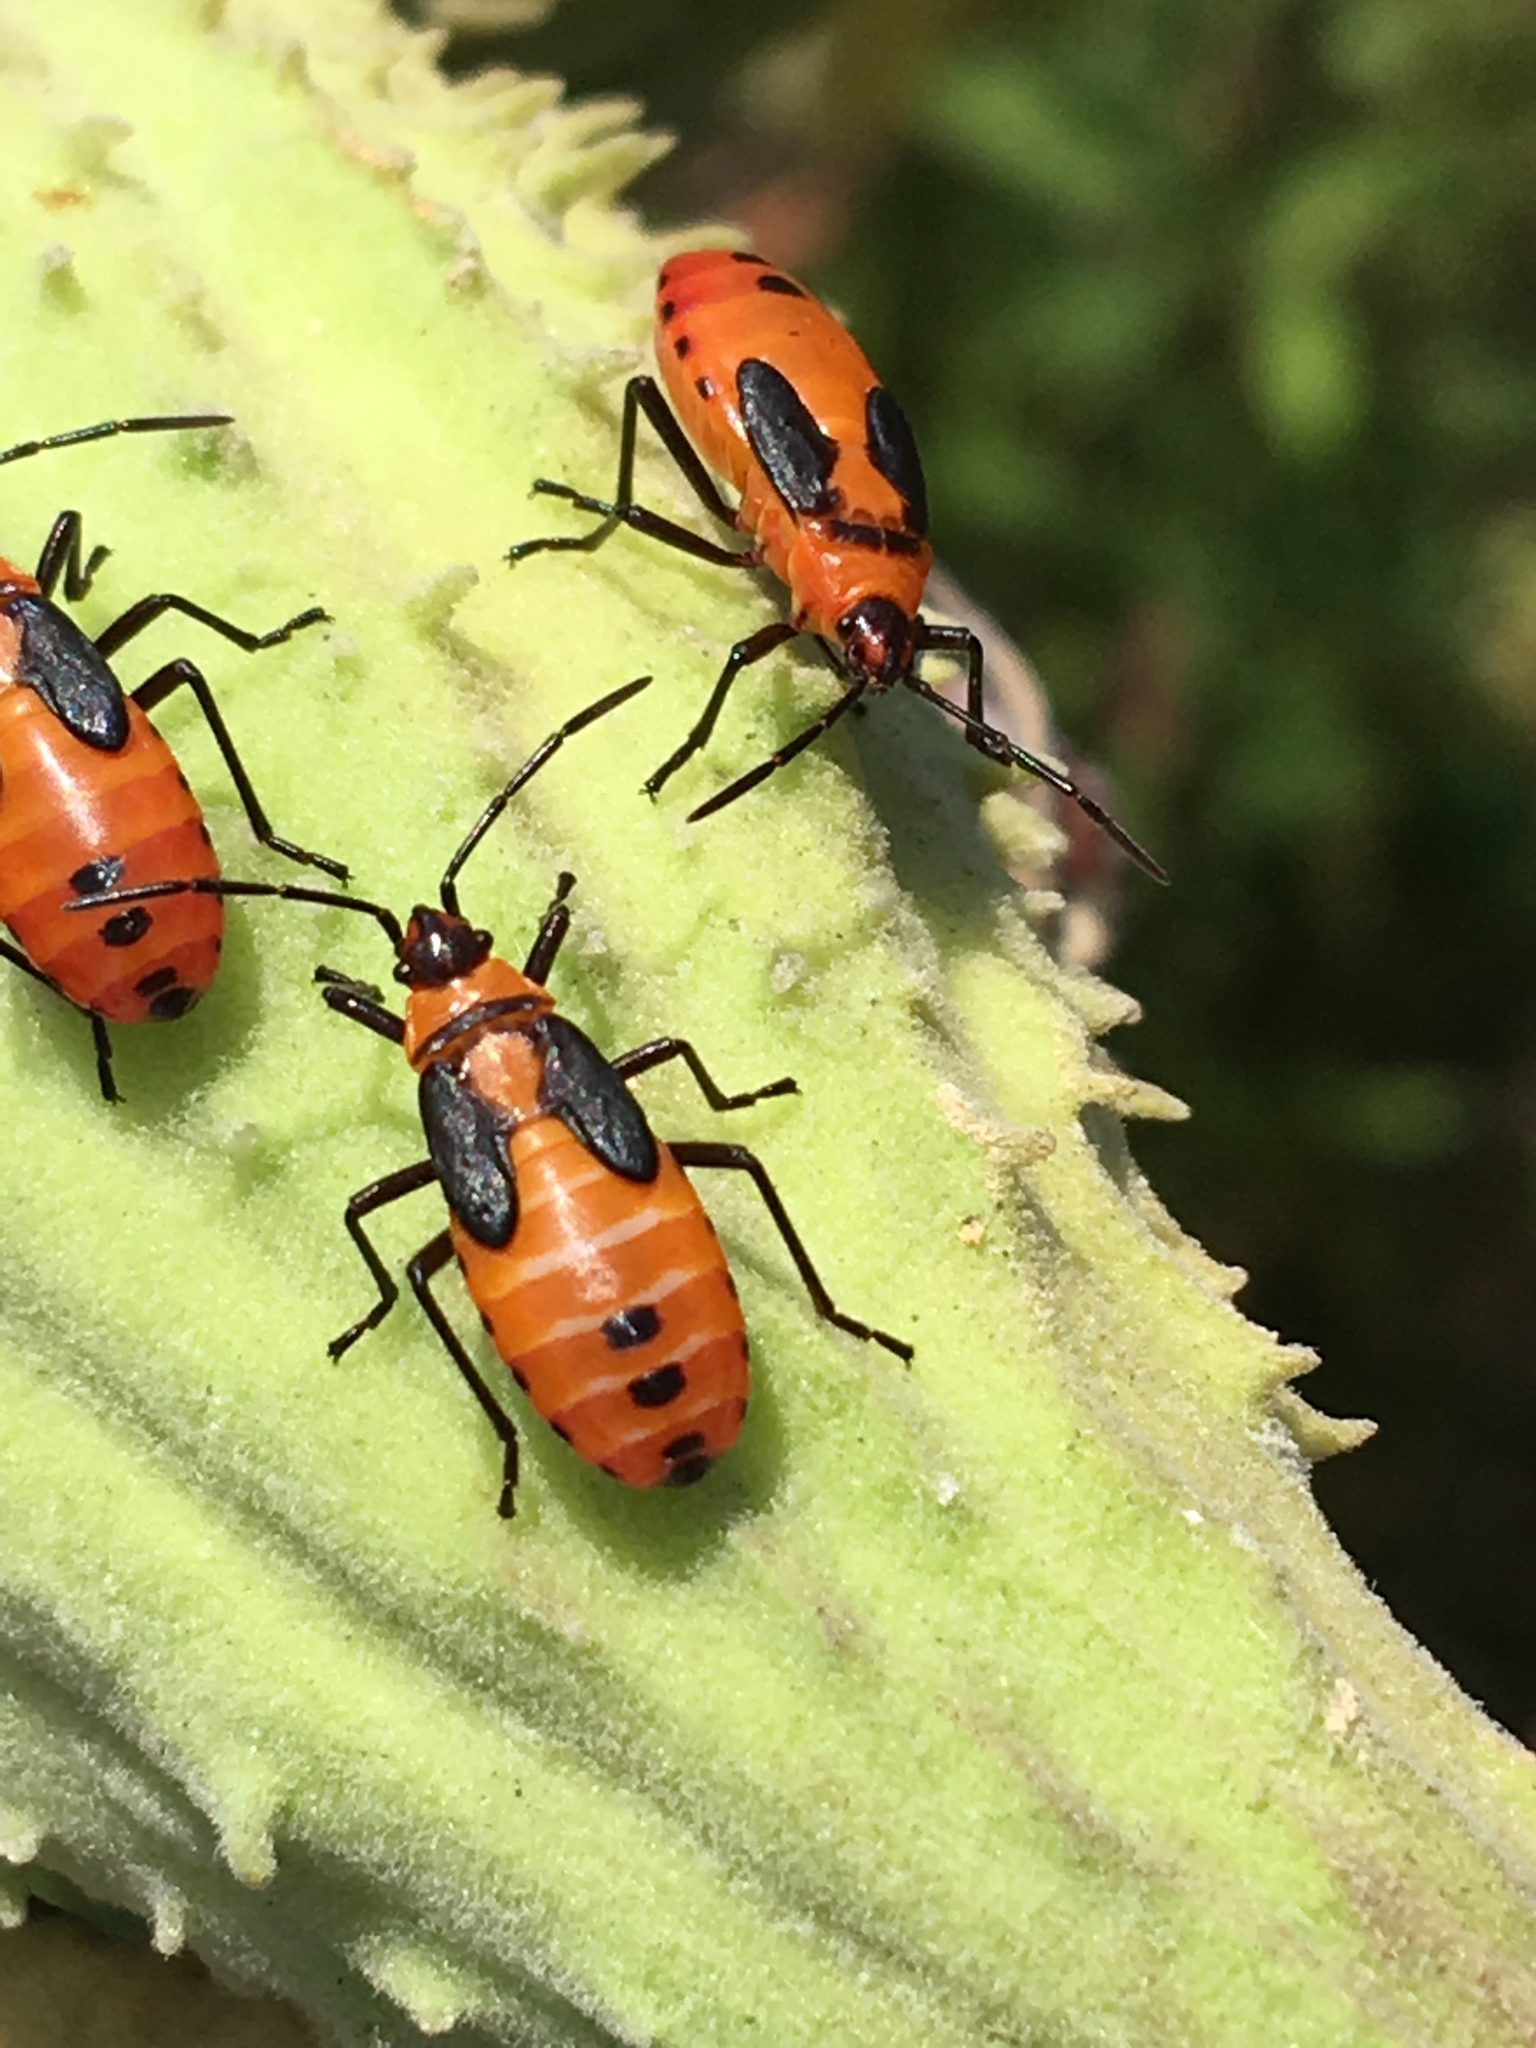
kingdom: Animalia
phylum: Arthropoda
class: Insecta
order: Hemiptera
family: Lygaeidae
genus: Oncopeltus
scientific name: Oncopeltus fasciatus
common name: Large milkweed bug
